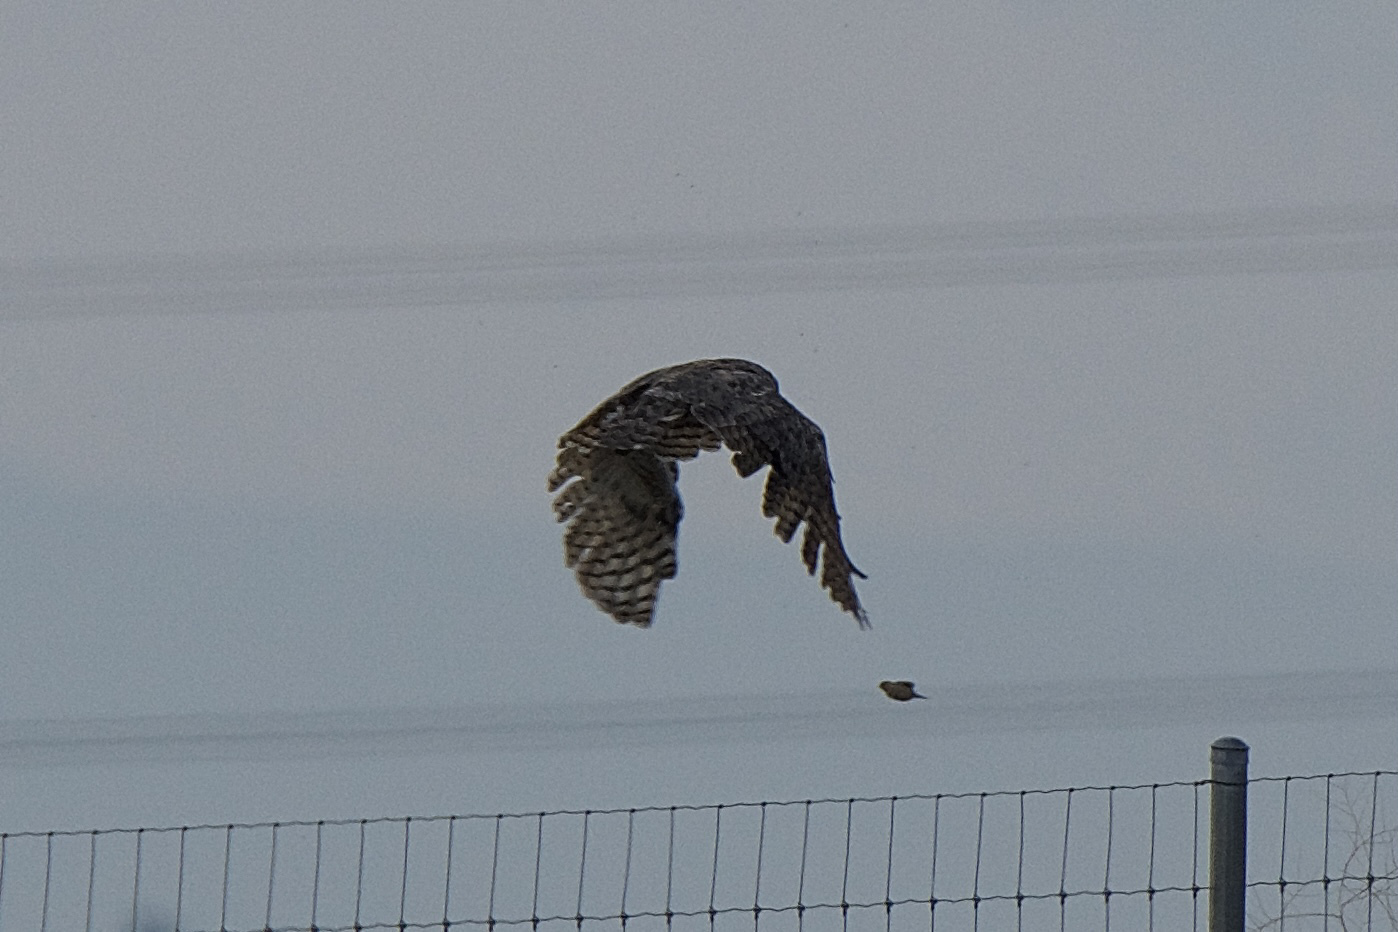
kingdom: Animalia
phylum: Chordata
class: Aves
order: Strigiformes
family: Strigidae
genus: Bubo
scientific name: Bubo virginianus
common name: Great horned owl
